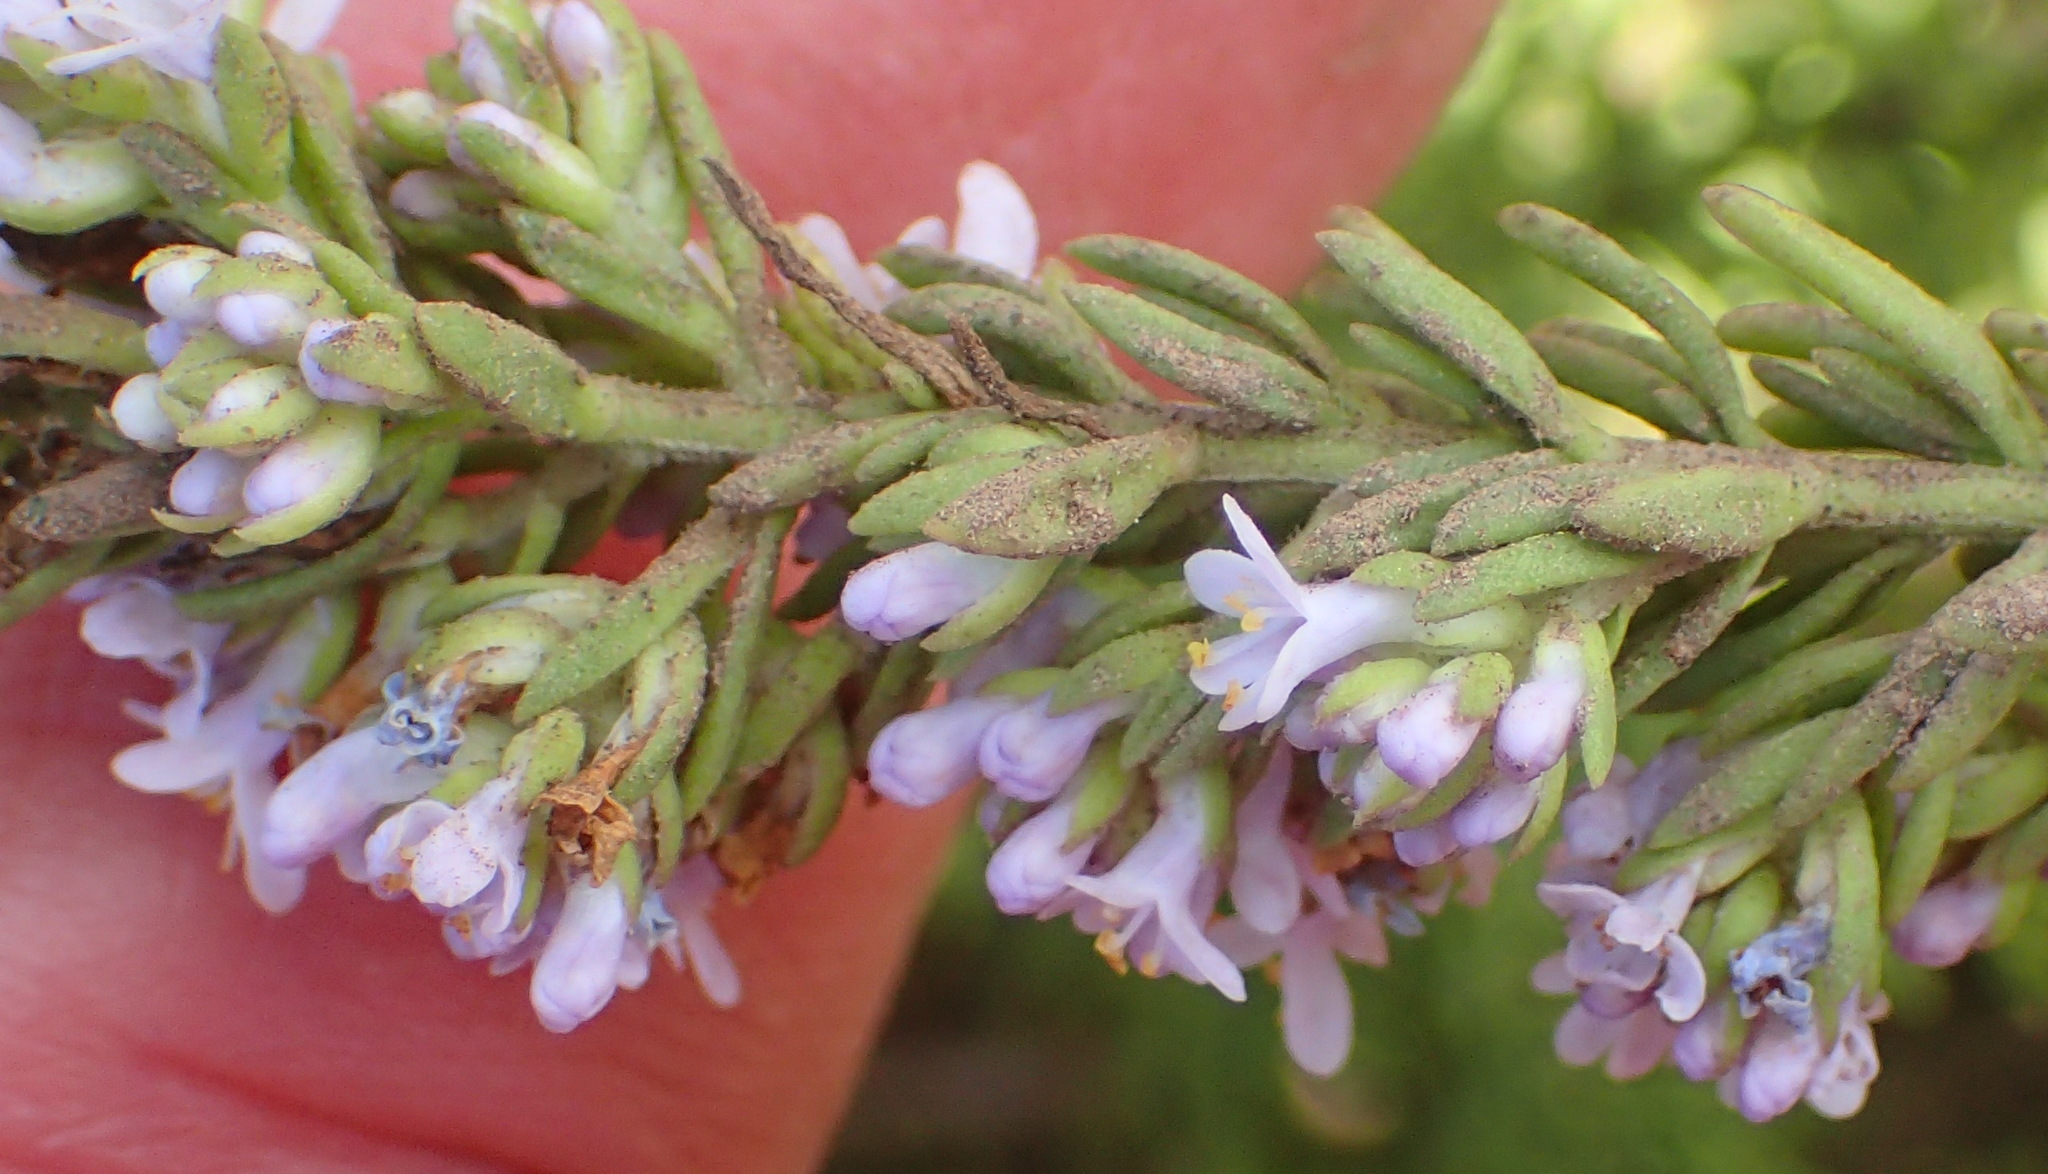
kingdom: Plantae
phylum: Tracheophyta
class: Magnoliopsida
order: Lamiales
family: Scrophulariaceae
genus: Selago
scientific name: Selago canescens
